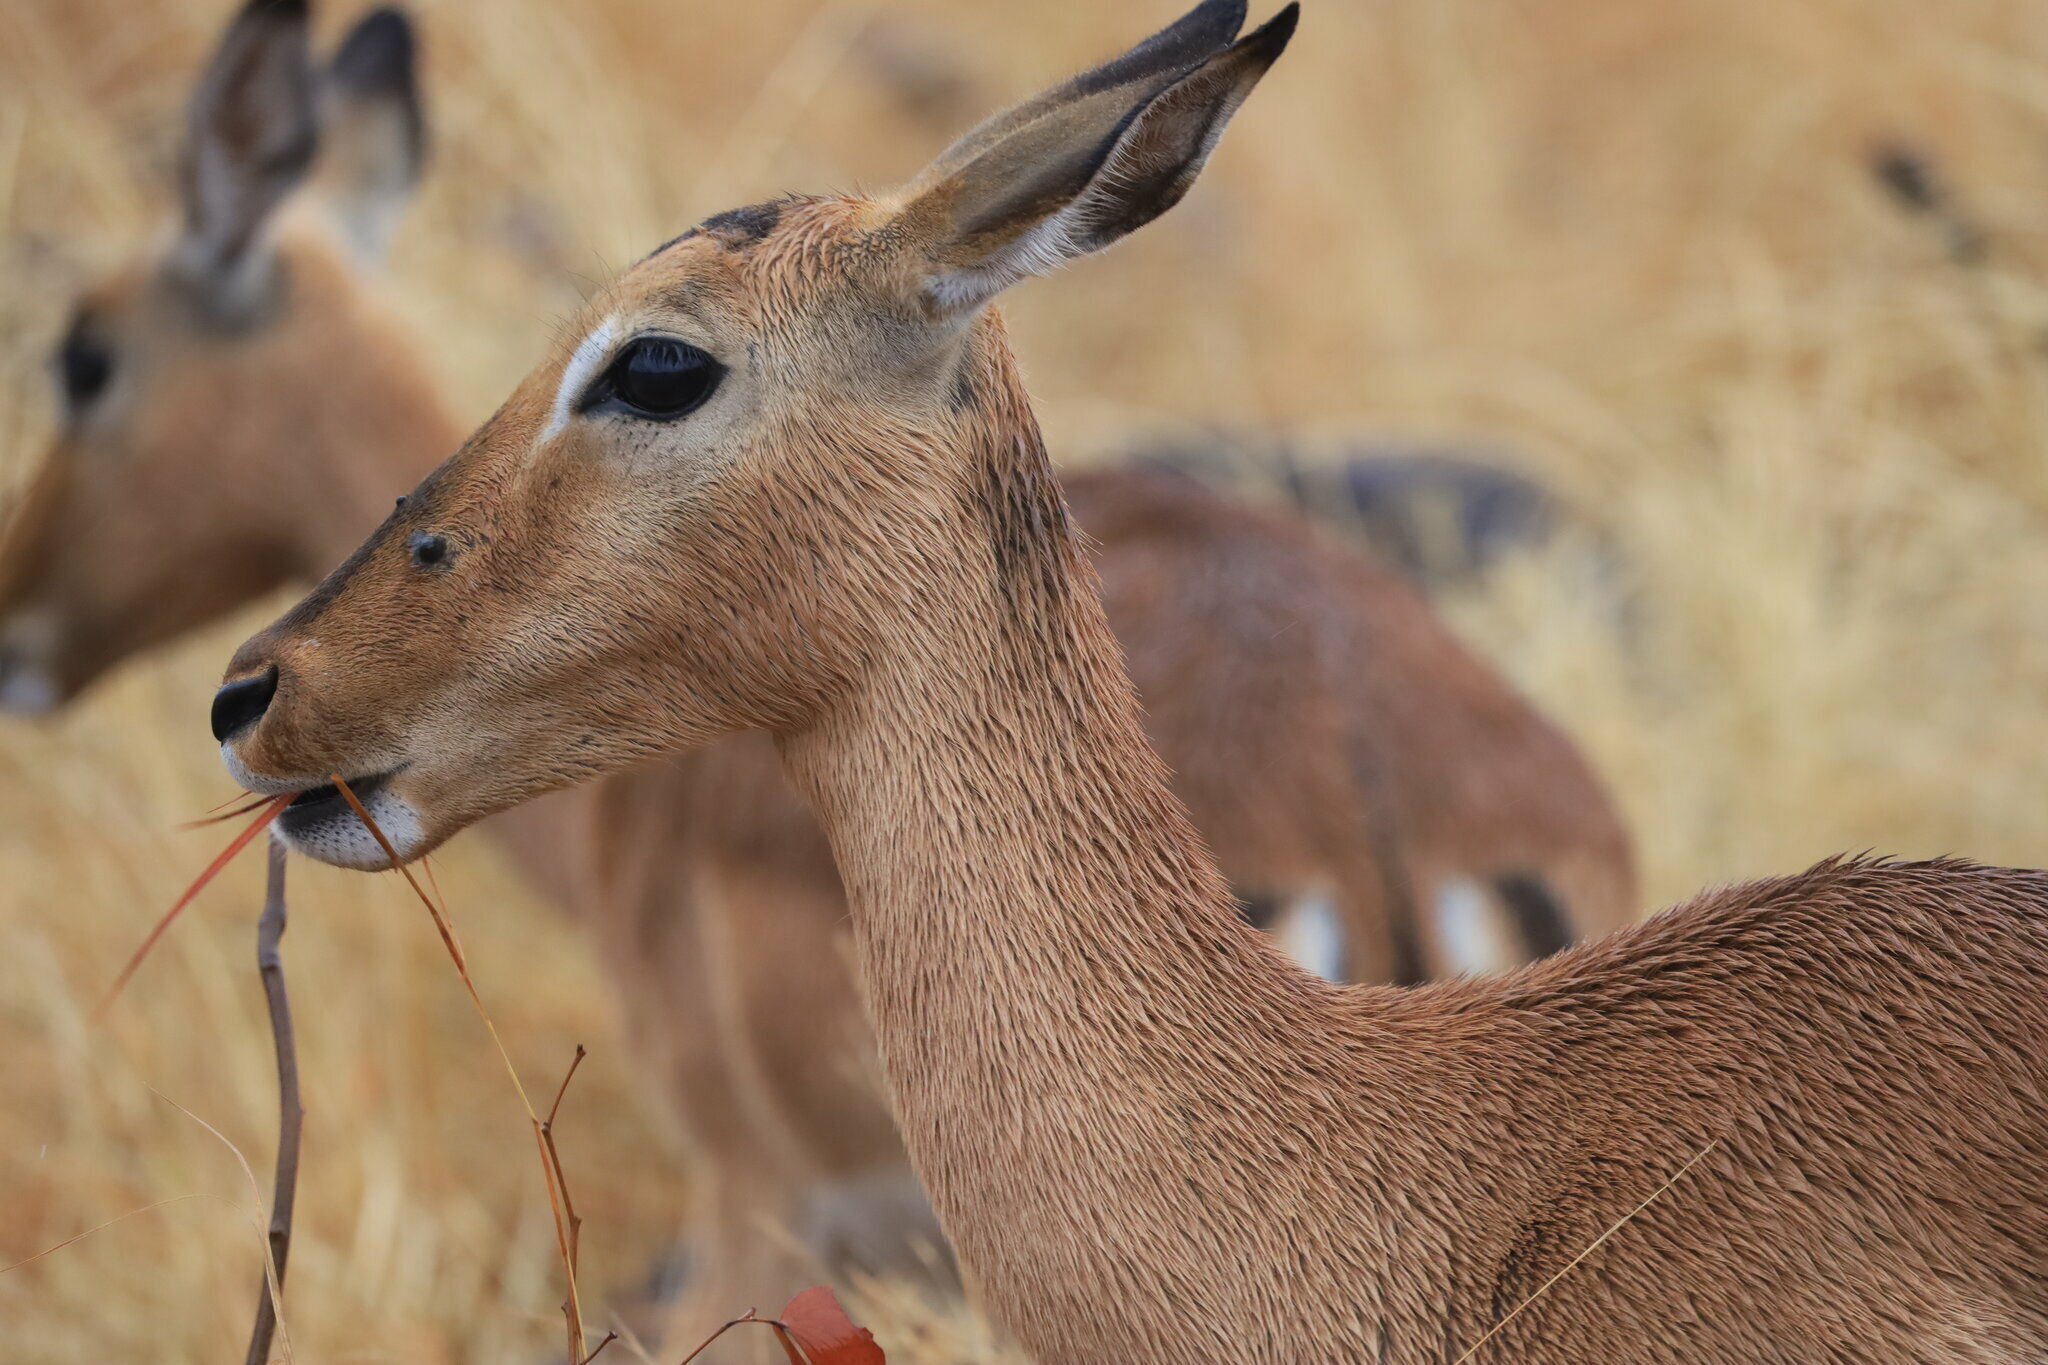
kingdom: Animalia
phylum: Chordata
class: Mammalia
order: Artiodactyla
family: Bovidae
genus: Aepyceros
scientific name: Aepyceros melampus
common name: Impala
